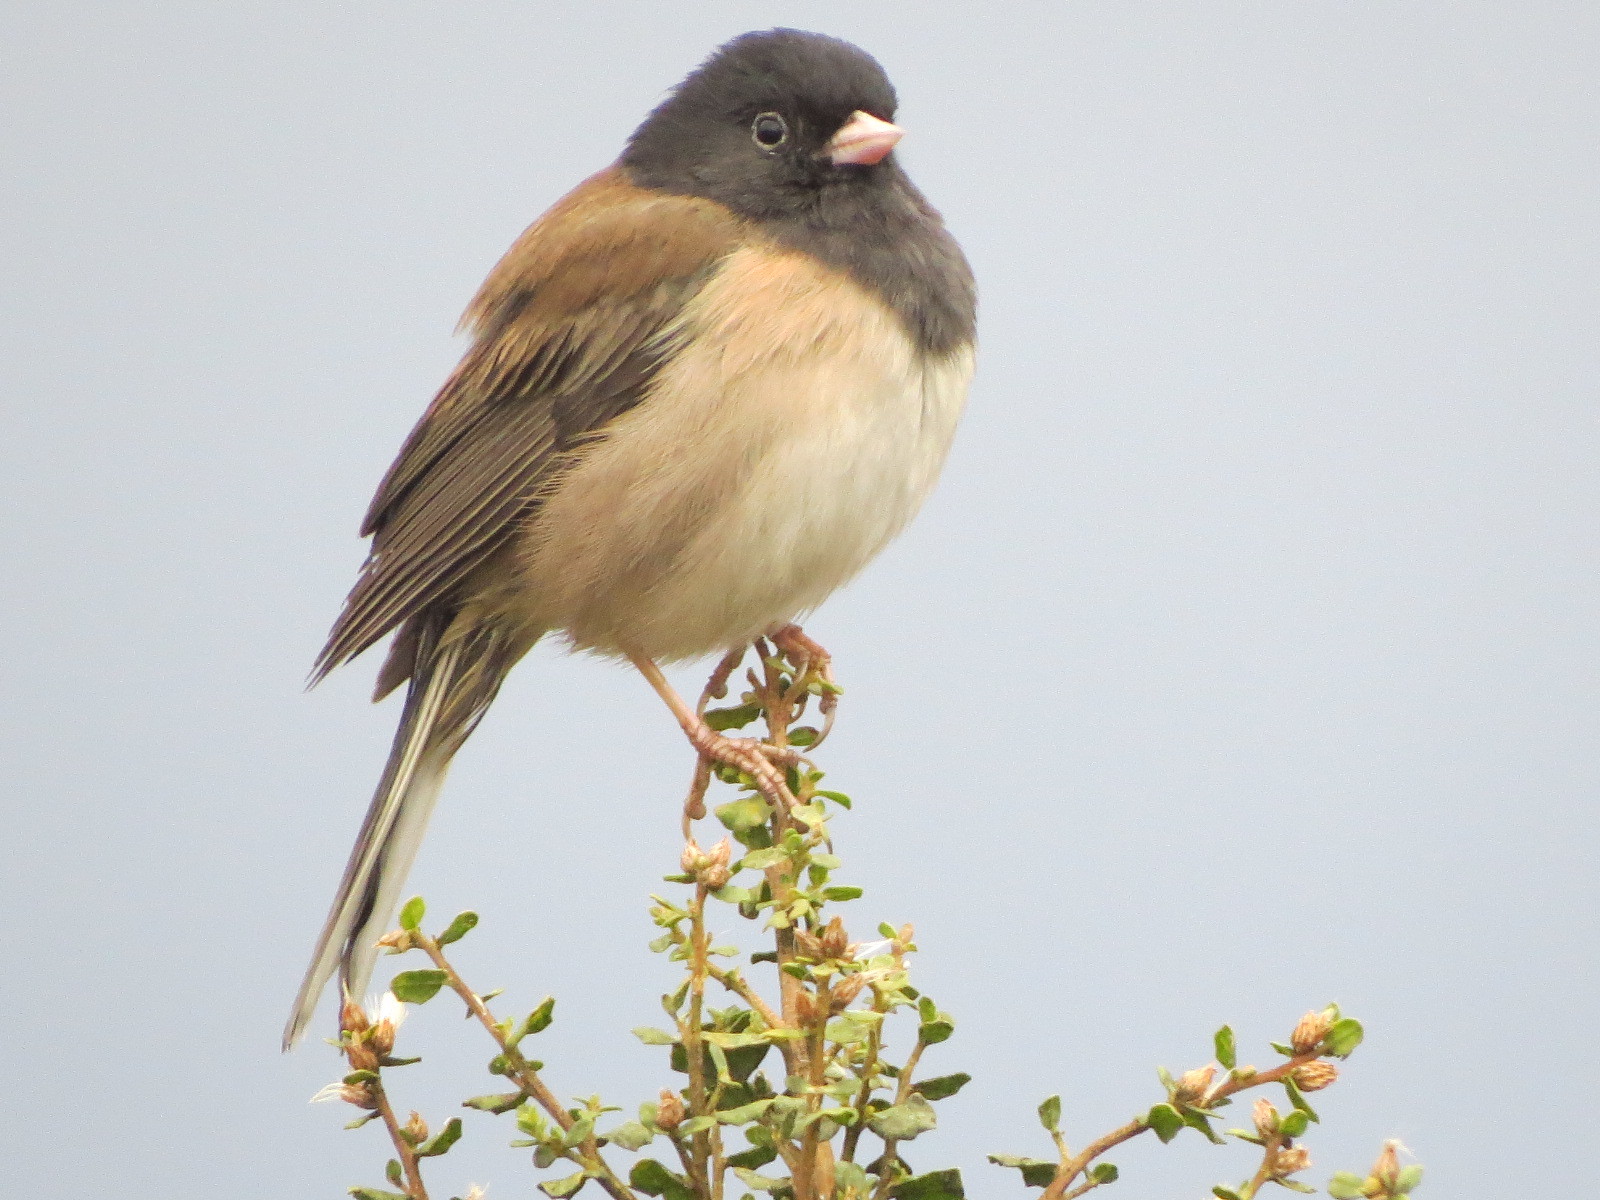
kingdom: Animalia
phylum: Chordata
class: Aves
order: Passeriformes
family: Passerellidae
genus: Junco
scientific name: Junco hyemalis
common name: Dark-eyed junco
